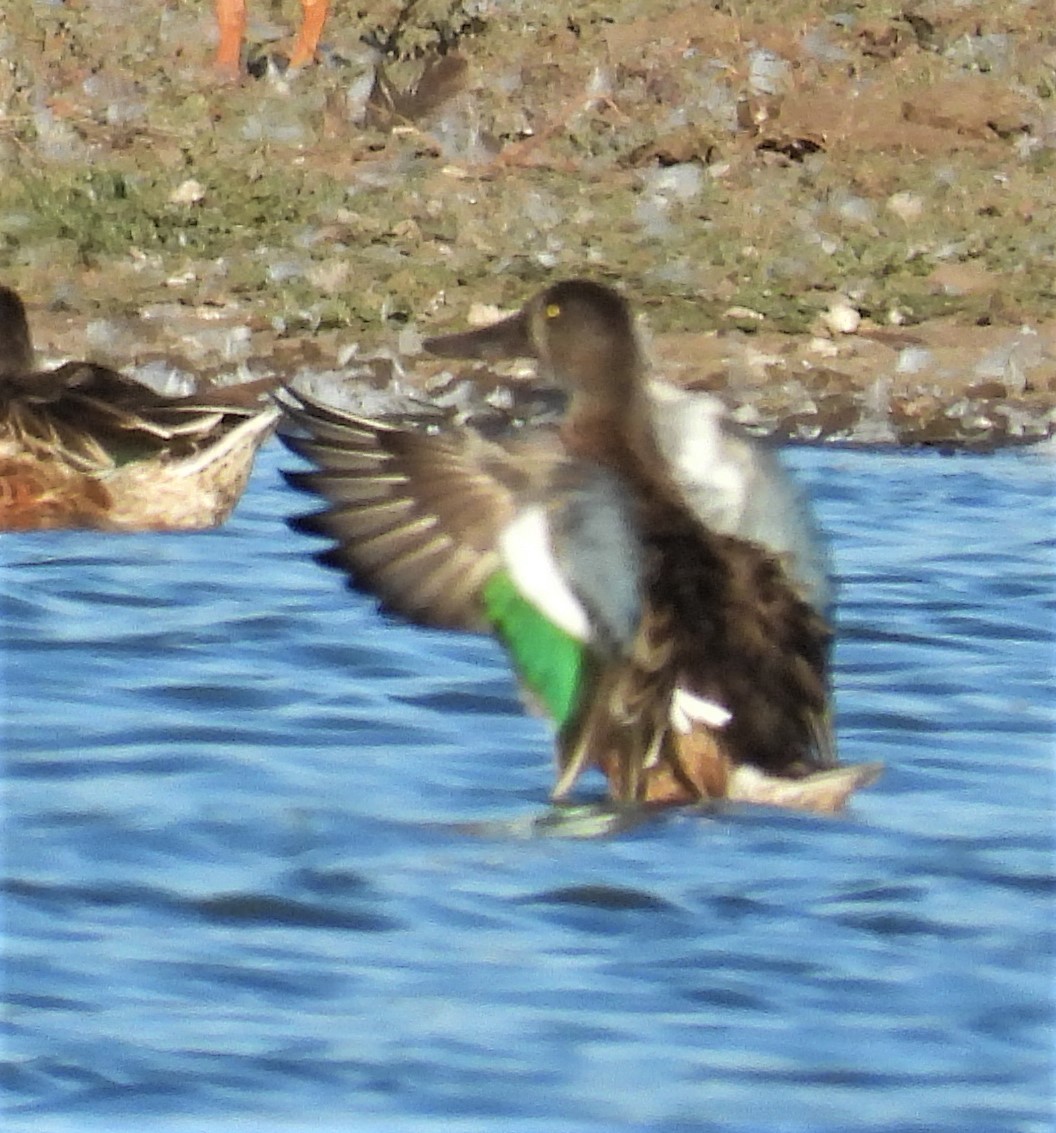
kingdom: Animalia
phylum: Chordata
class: Aves
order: Anseriformes
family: Anatidae
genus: Spatula
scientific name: Spatula clypeata
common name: Northern shoveler
